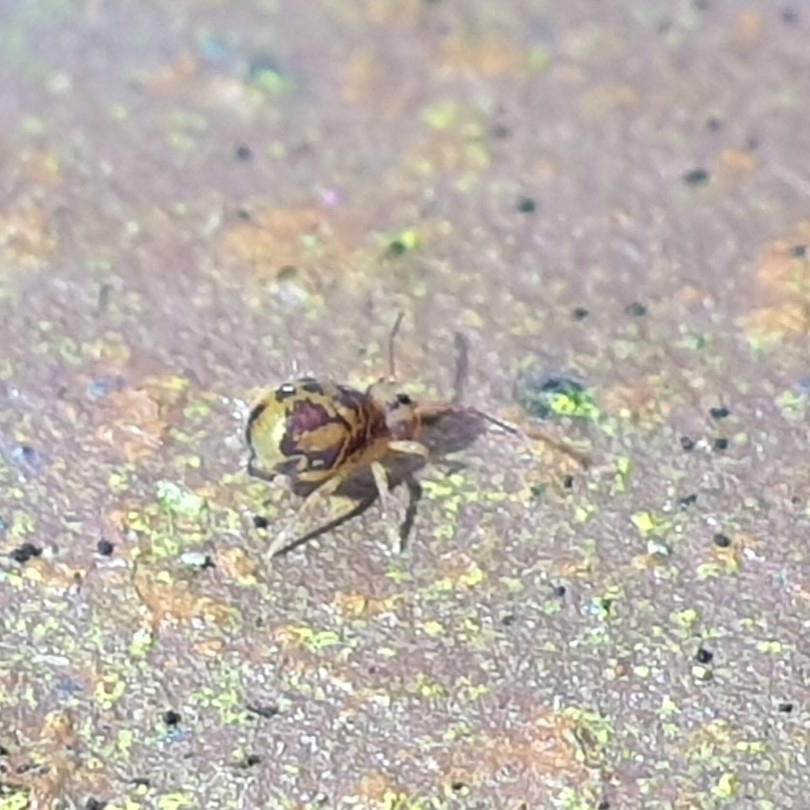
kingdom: Animalia
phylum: Arthropoda
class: Collembola
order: Symphypleona
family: Dicyrtomidae
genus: Dicyrtomina
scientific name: Dicyrtomina ornata
